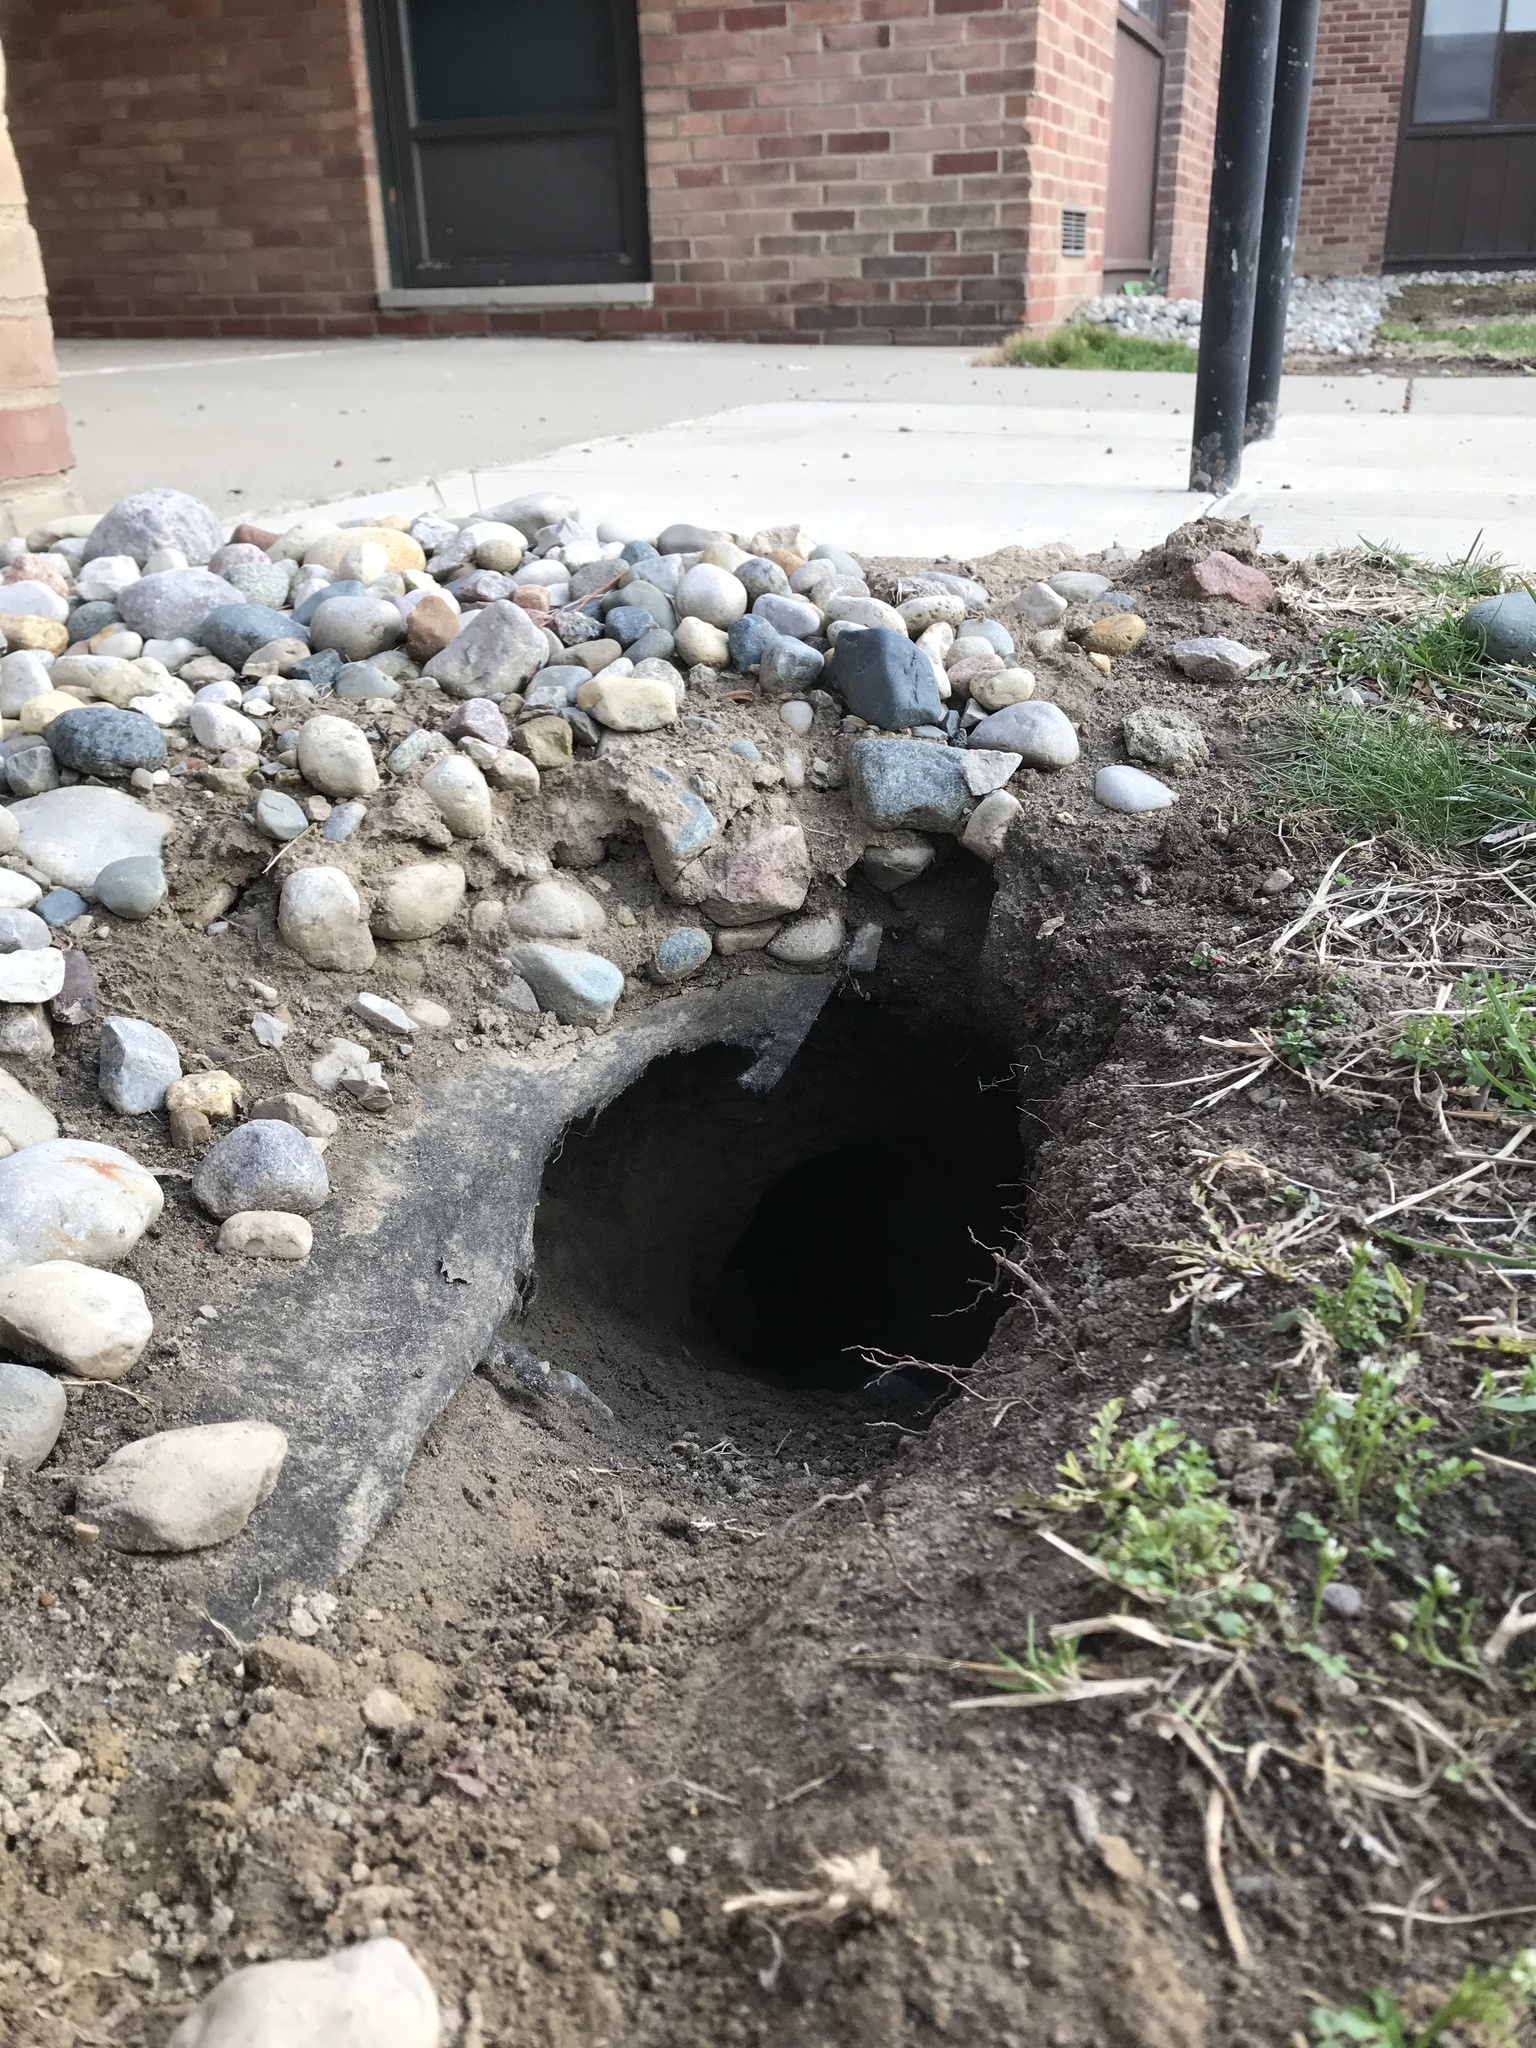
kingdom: Animalia
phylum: Chordata
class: Mammalia
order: Rodentia
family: Sciuridae
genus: Marmota
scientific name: Marmota monax
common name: Groundhog
